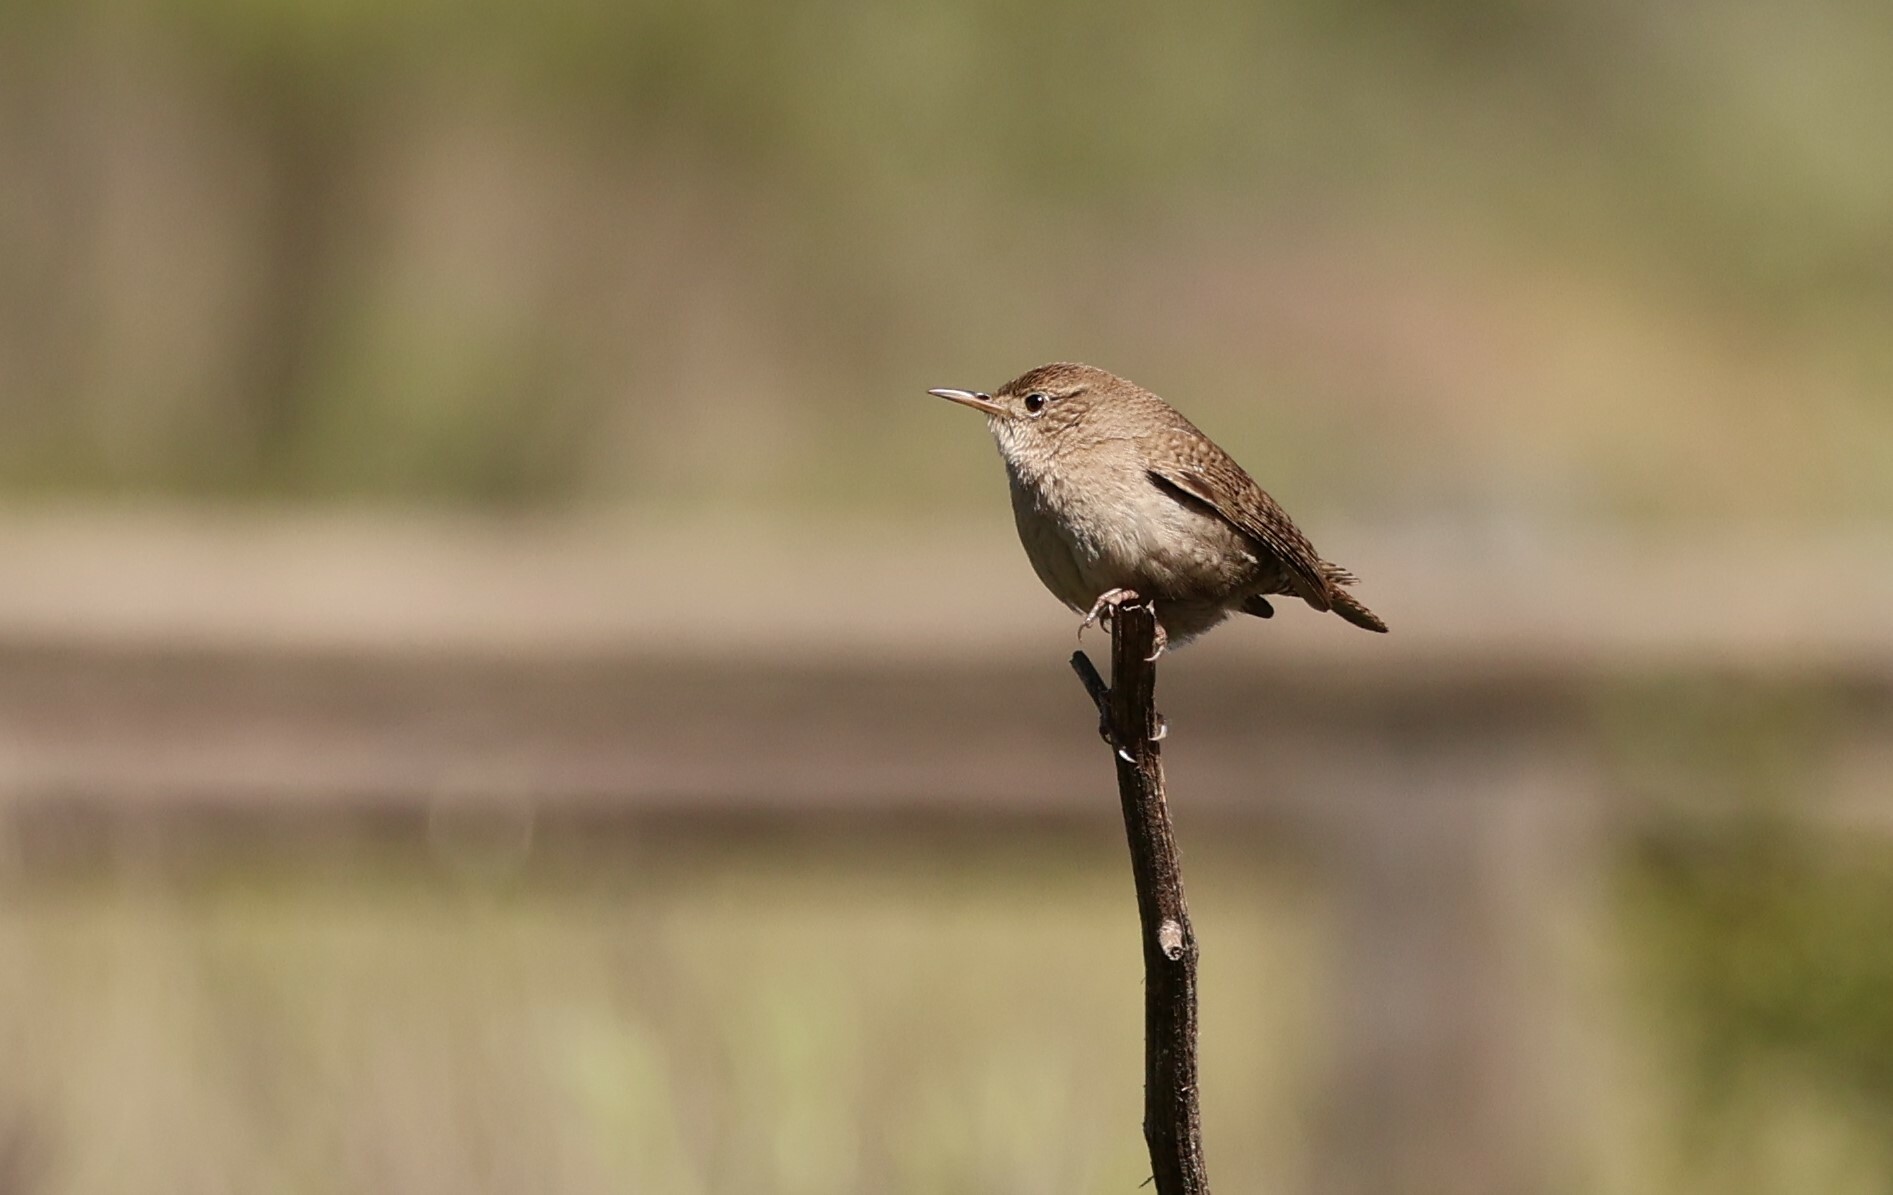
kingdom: Animalia
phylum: Chordata
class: Aves
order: Passeriformes
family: Troglodytidae
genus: Troglodytes
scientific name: Troglodytes aedon
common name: House wren
